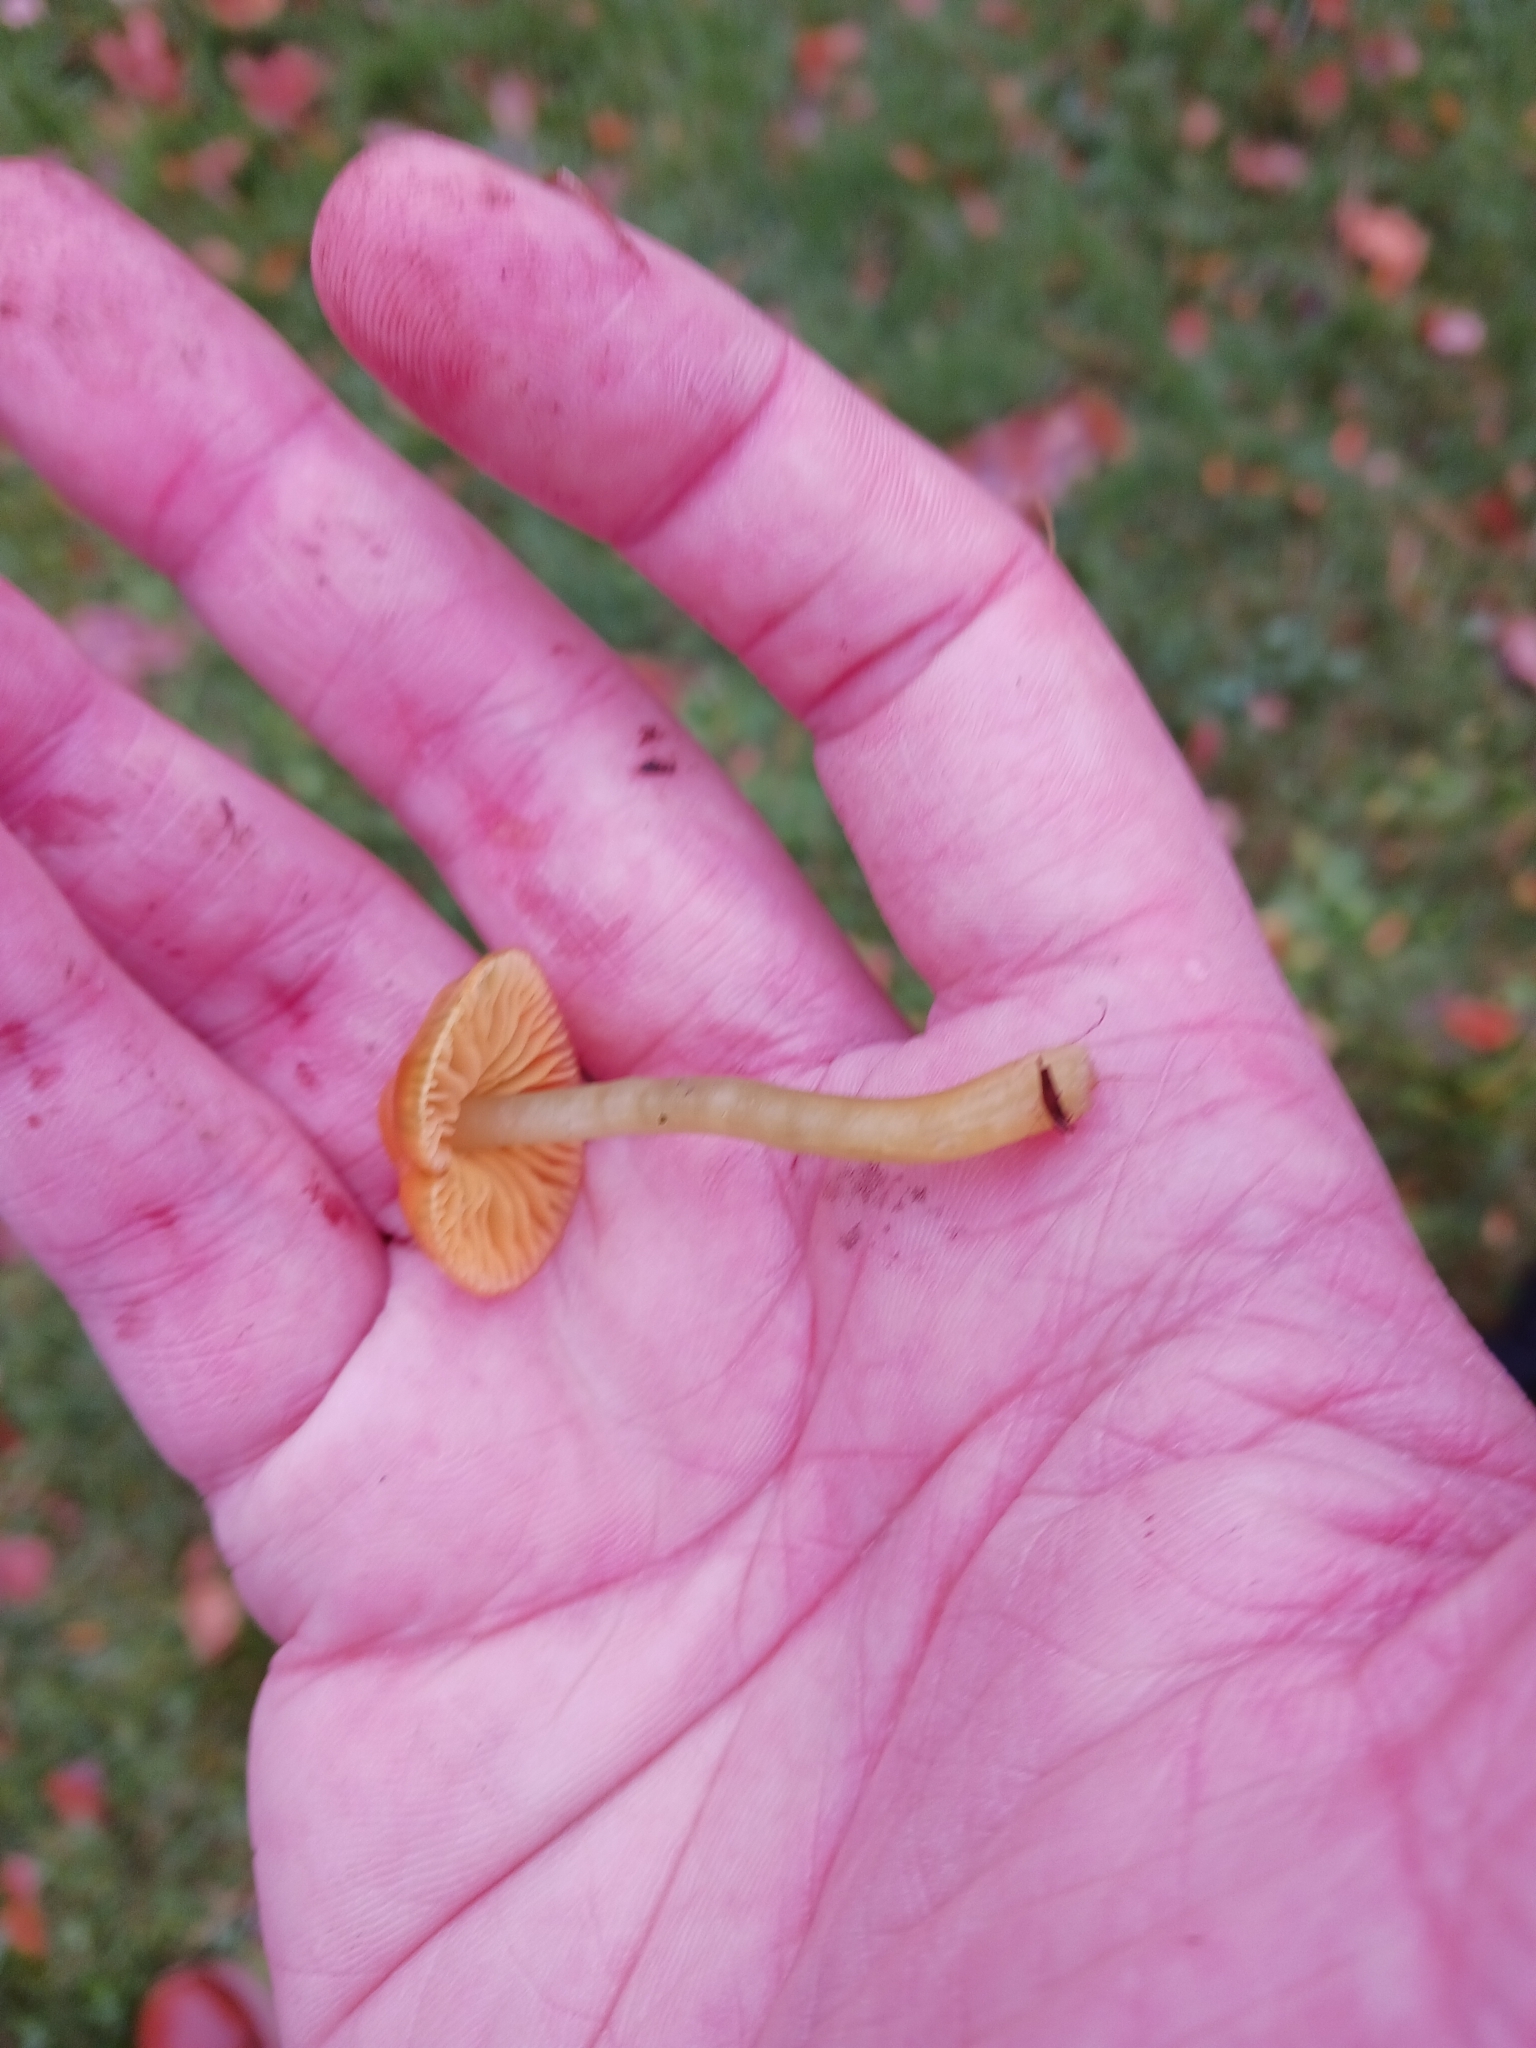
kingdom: Fungi
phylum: Basidiomycota
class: Agaricomycetes
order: Agaricales
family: Hygrophoraceae
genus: Gliophorus
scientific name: Gliophorus psittacinus
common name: Parrot wax-cap
